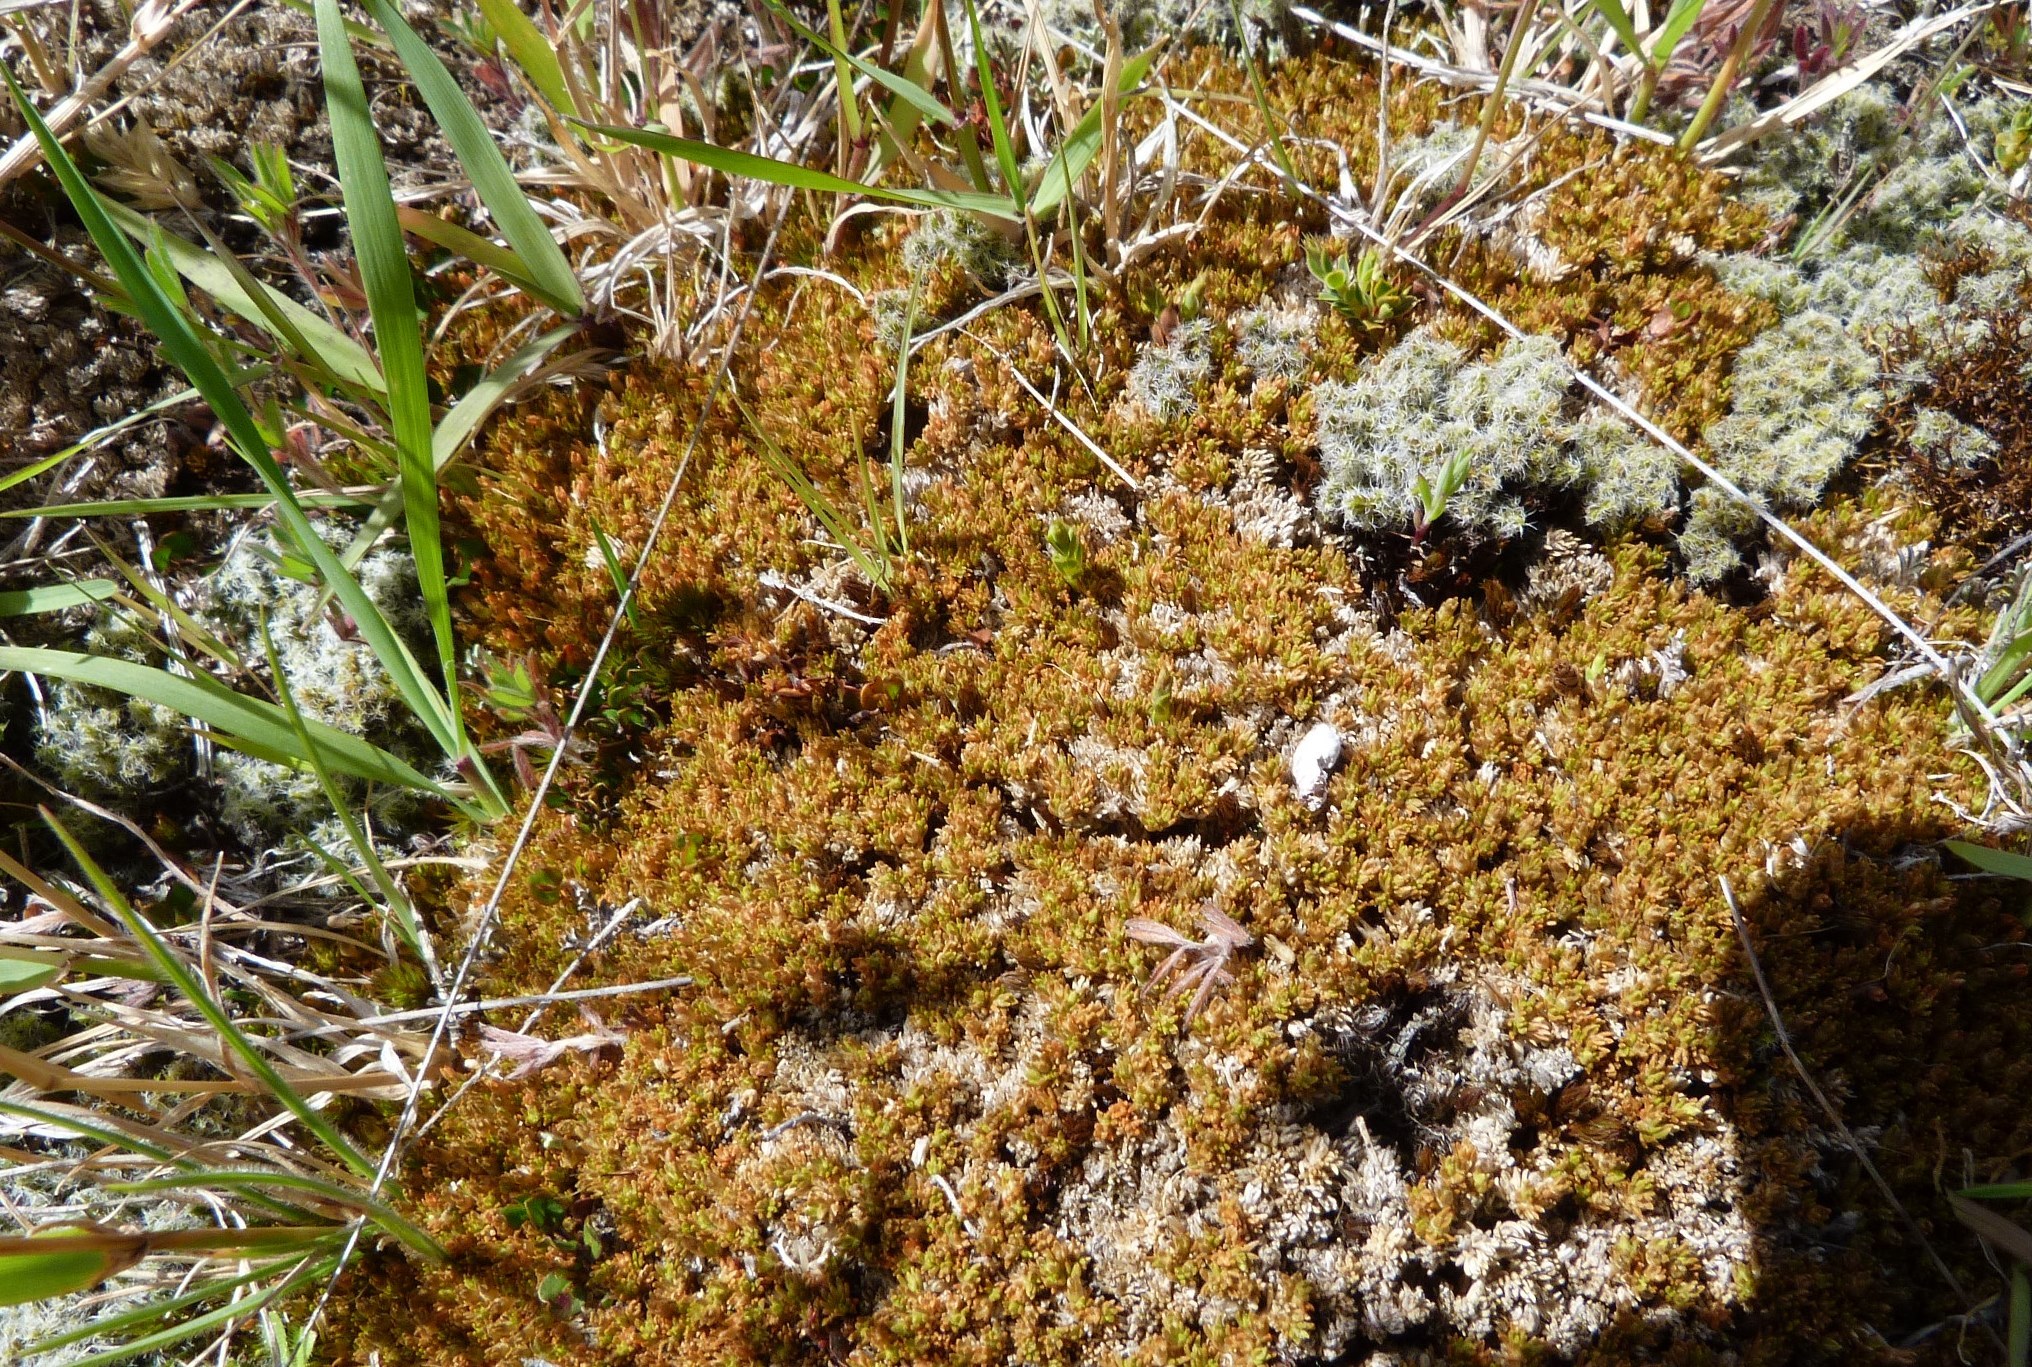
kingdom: Plantae
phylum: Tracheophyta
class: Magnoliopsida
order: Caryophyllales
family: Caryophyllaceae
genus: Scleranthus
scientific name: Scleranthus uniflorus
